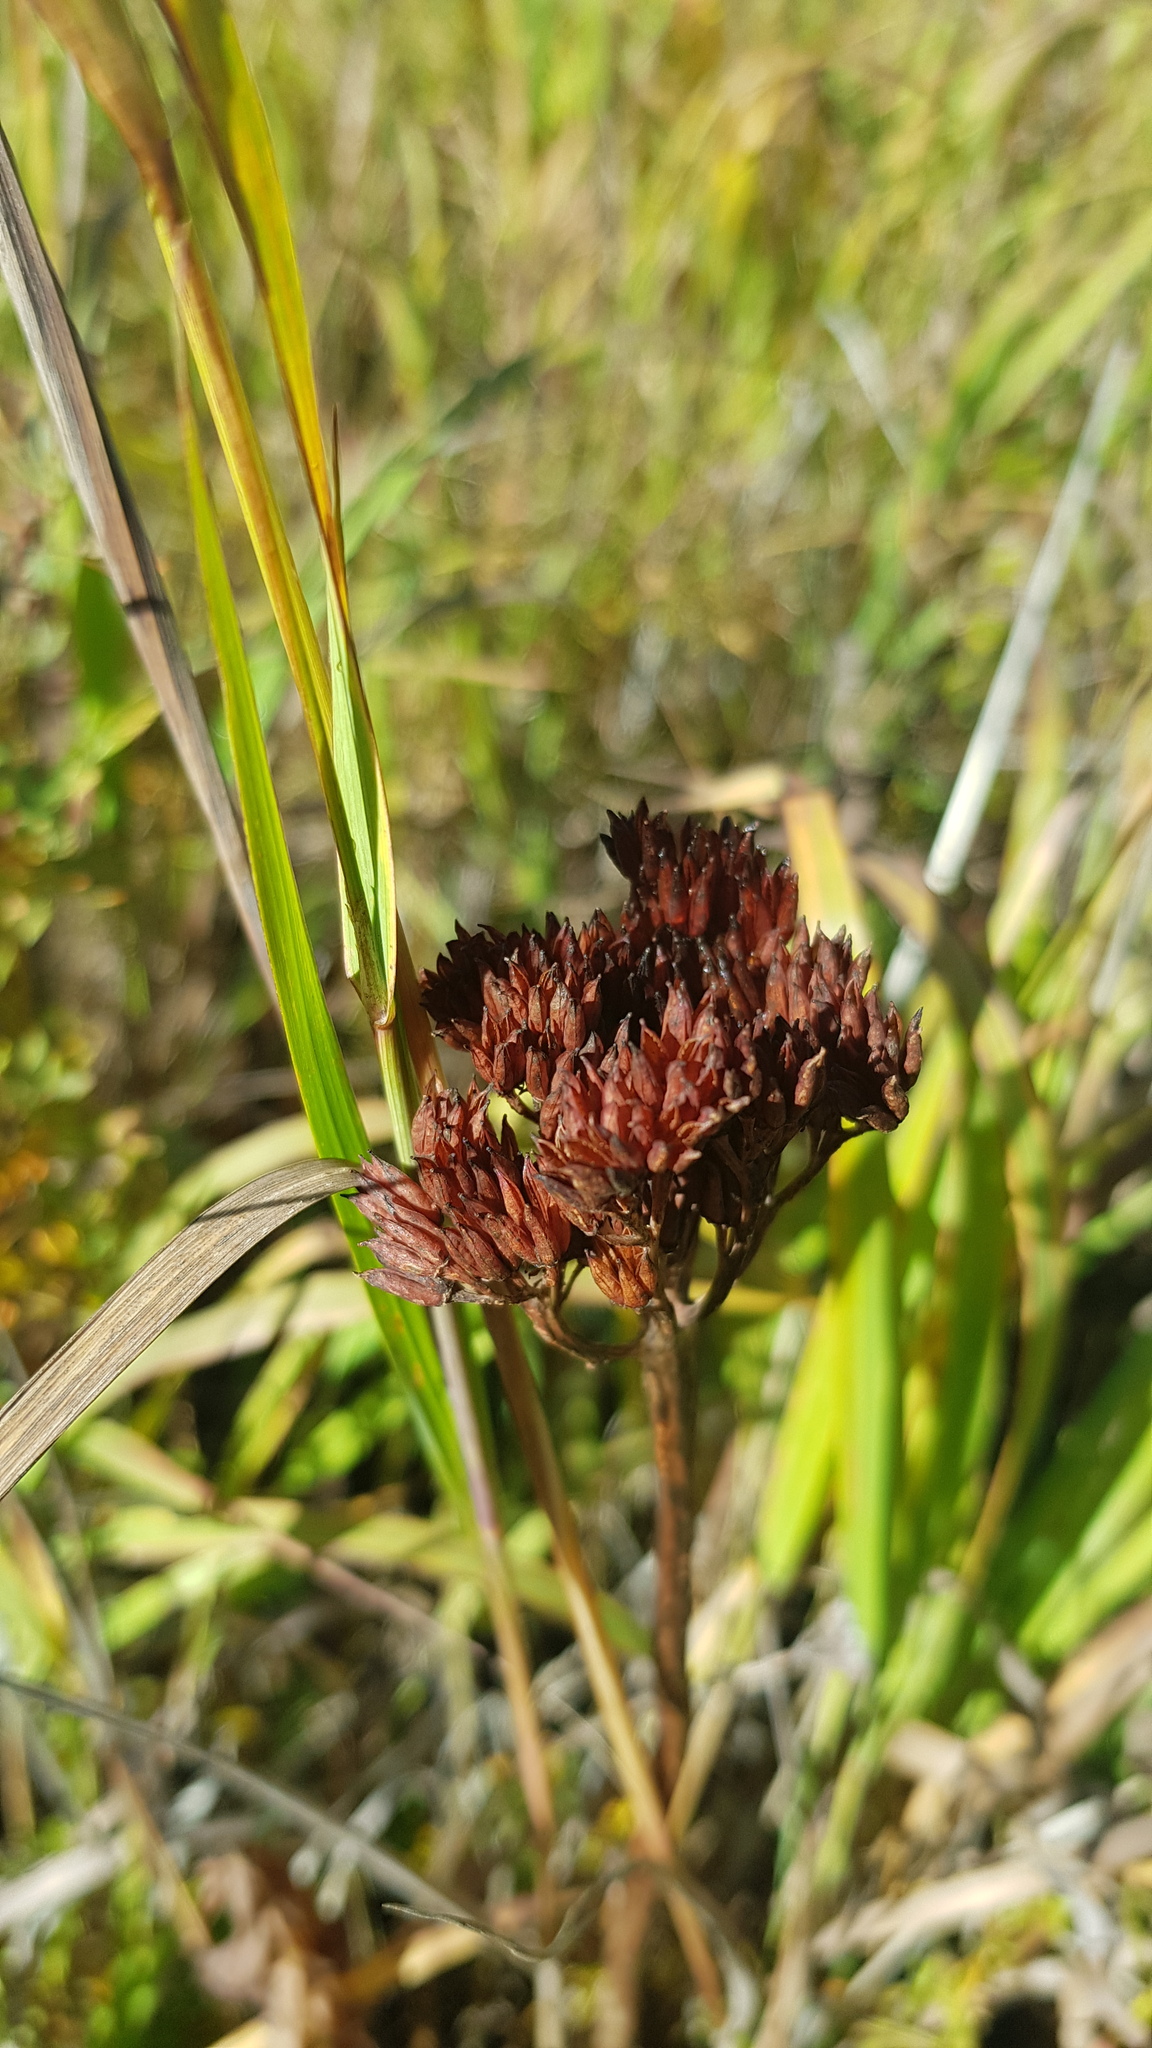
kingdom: Plantae
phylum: Tracheophyta
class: Magnoliopsida
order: Saxifragales
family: Crassulaceae
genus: Hylotelephium
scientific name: Hylotelephium telephium
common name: Live-forever
